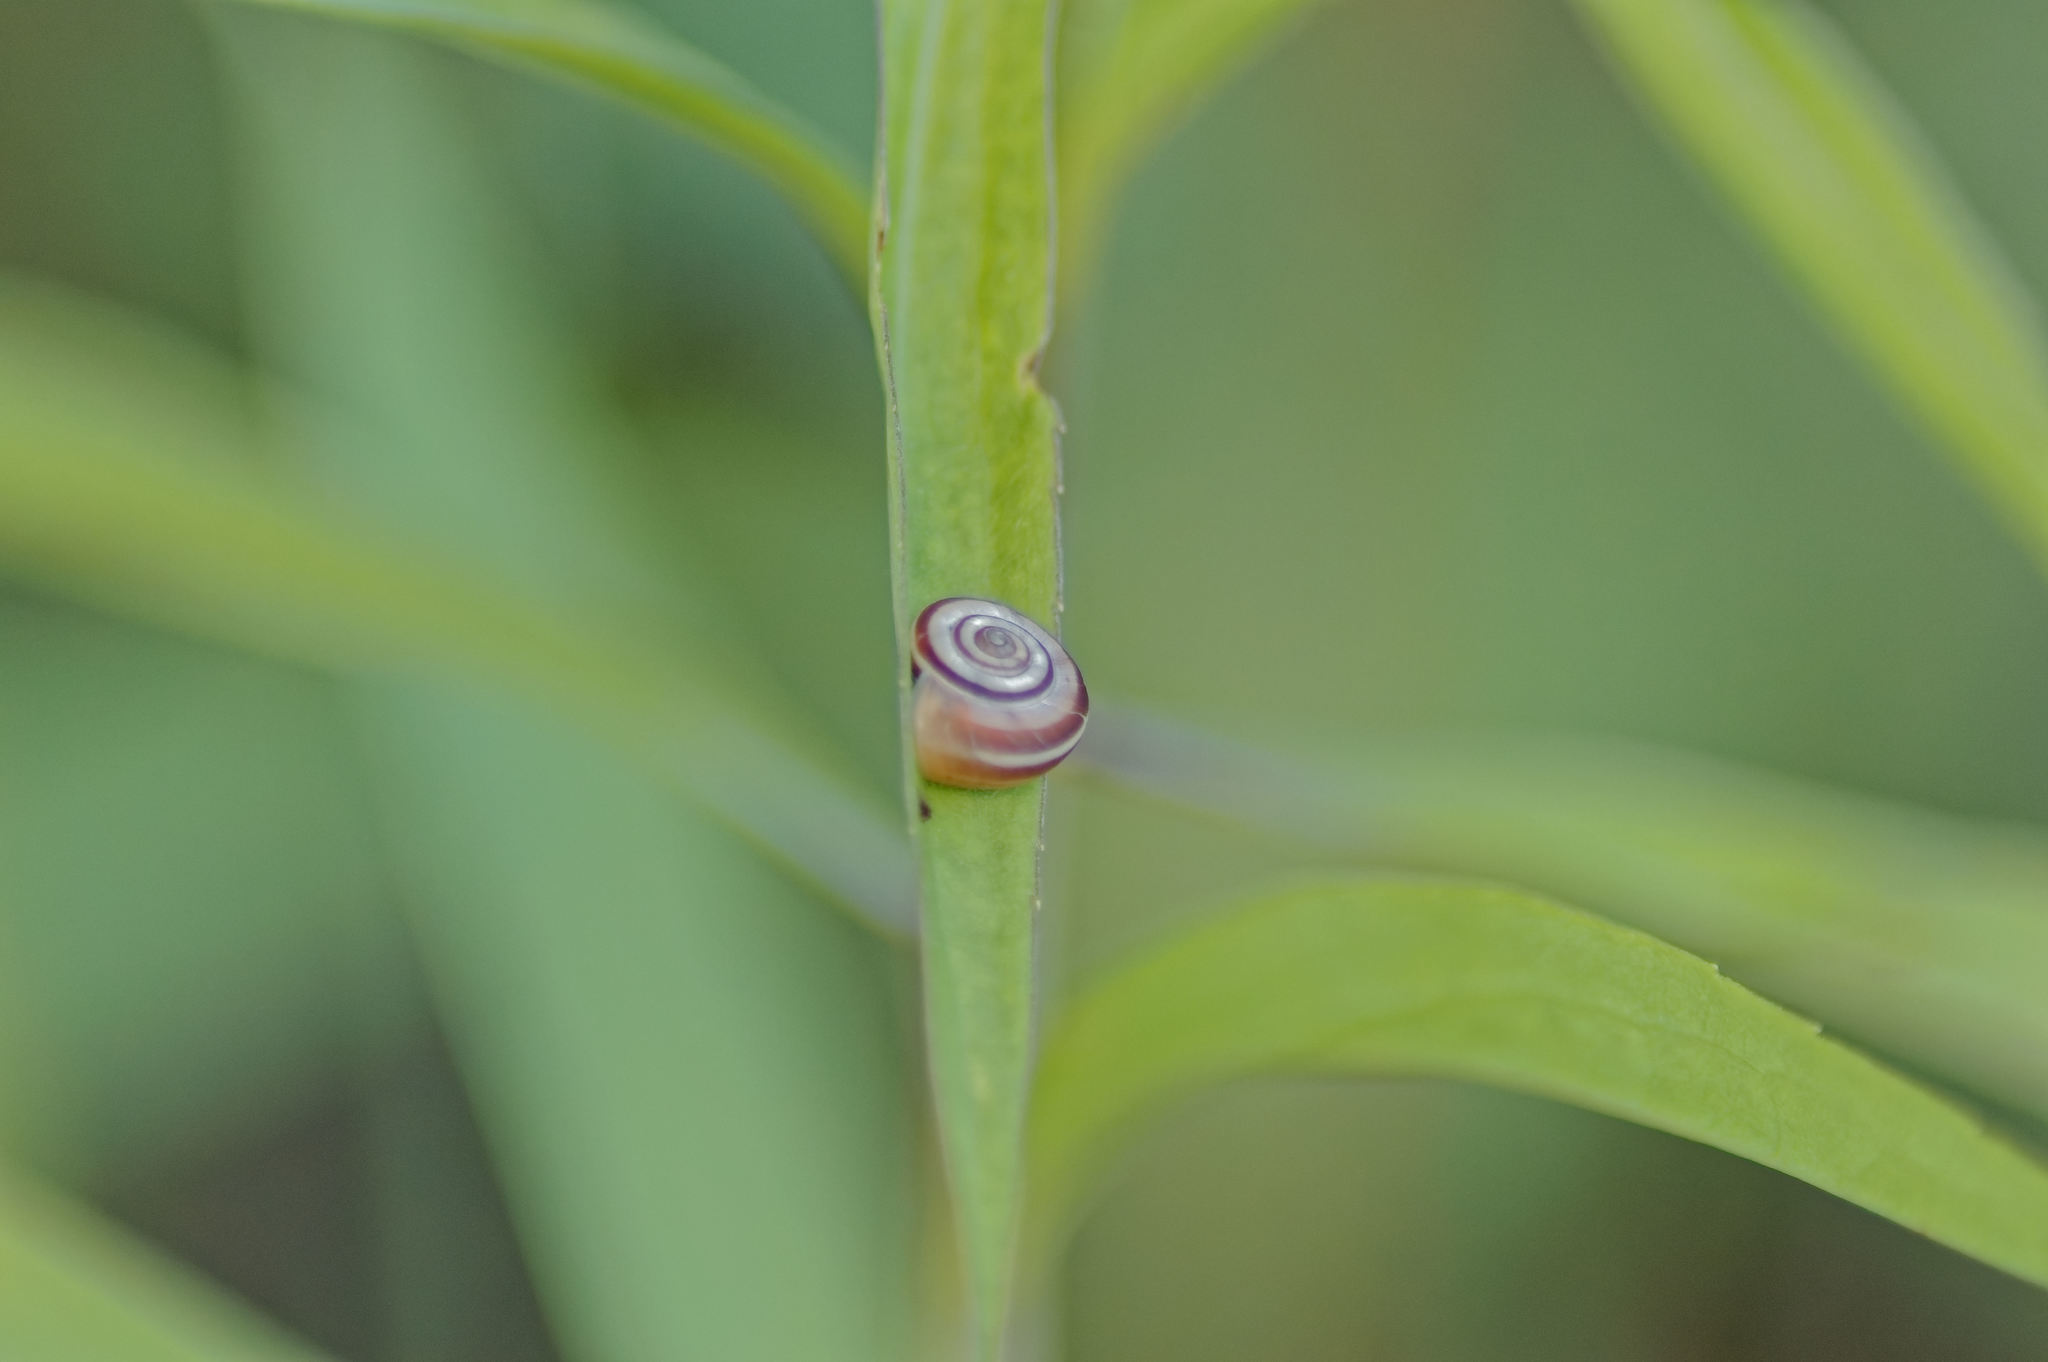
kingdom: Animalia
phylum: Mollusca
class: Gastropoda
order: Stylommatophora
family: Geomitridae
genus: Helicella
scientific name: Helicella itala
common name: Heath snail
